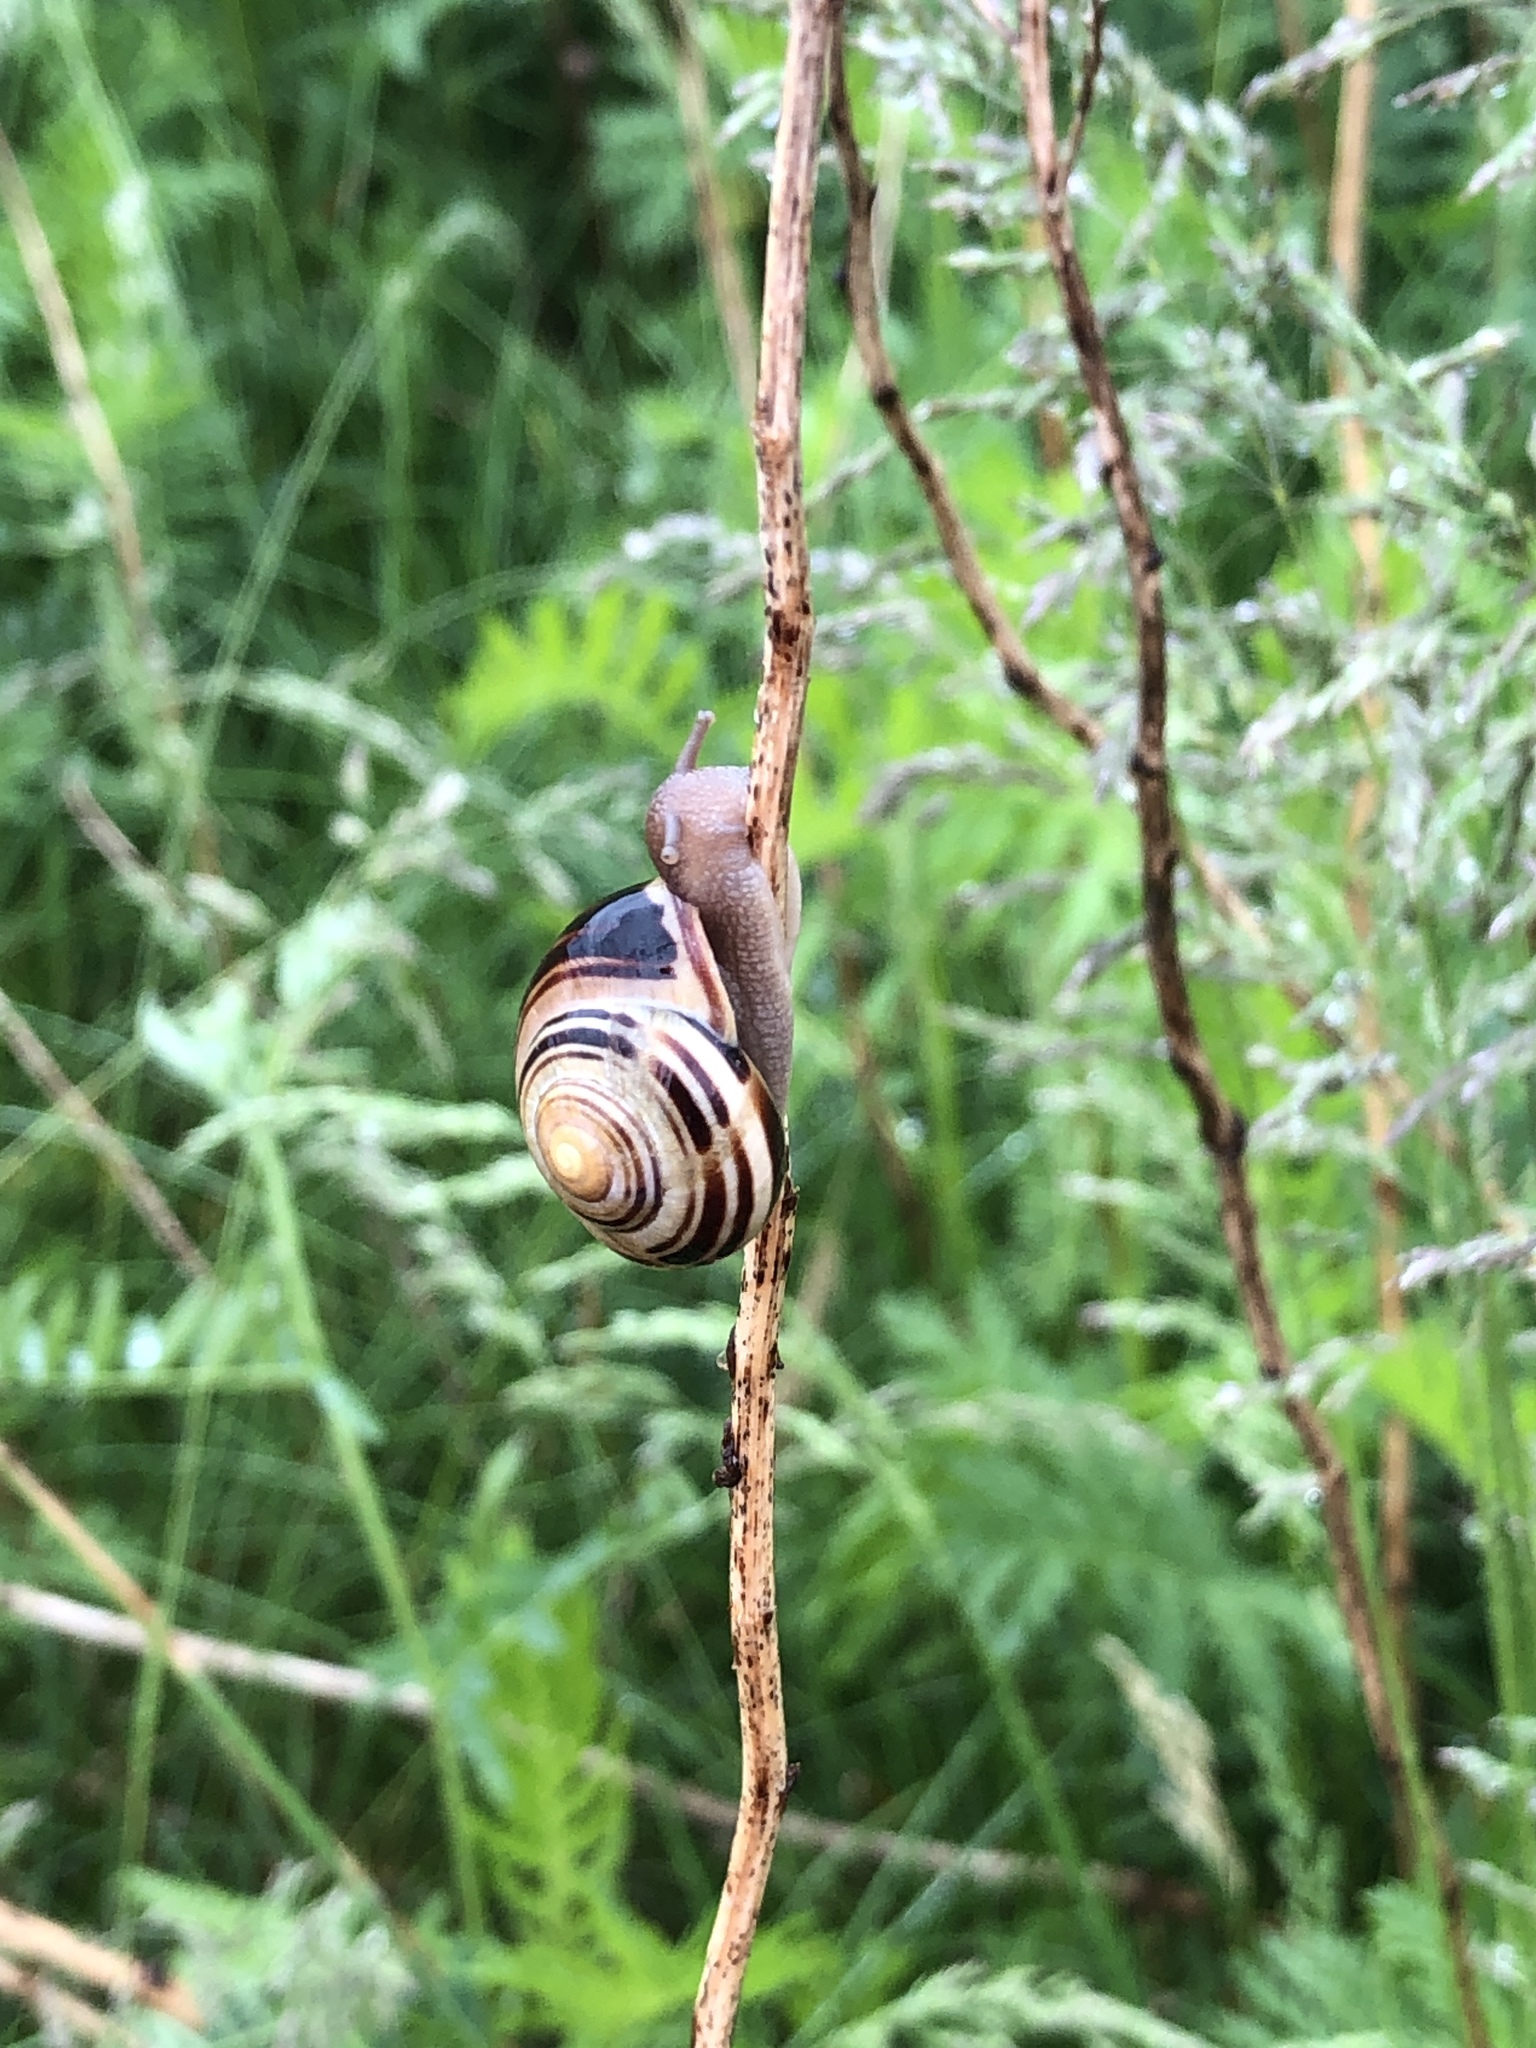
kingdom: Animalia
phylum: Mollusca
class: Gastropoda
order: Stylommatophora
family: Helicidae
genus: Cepaea
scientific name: Cepaea nemoralis
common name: Grovesnail
